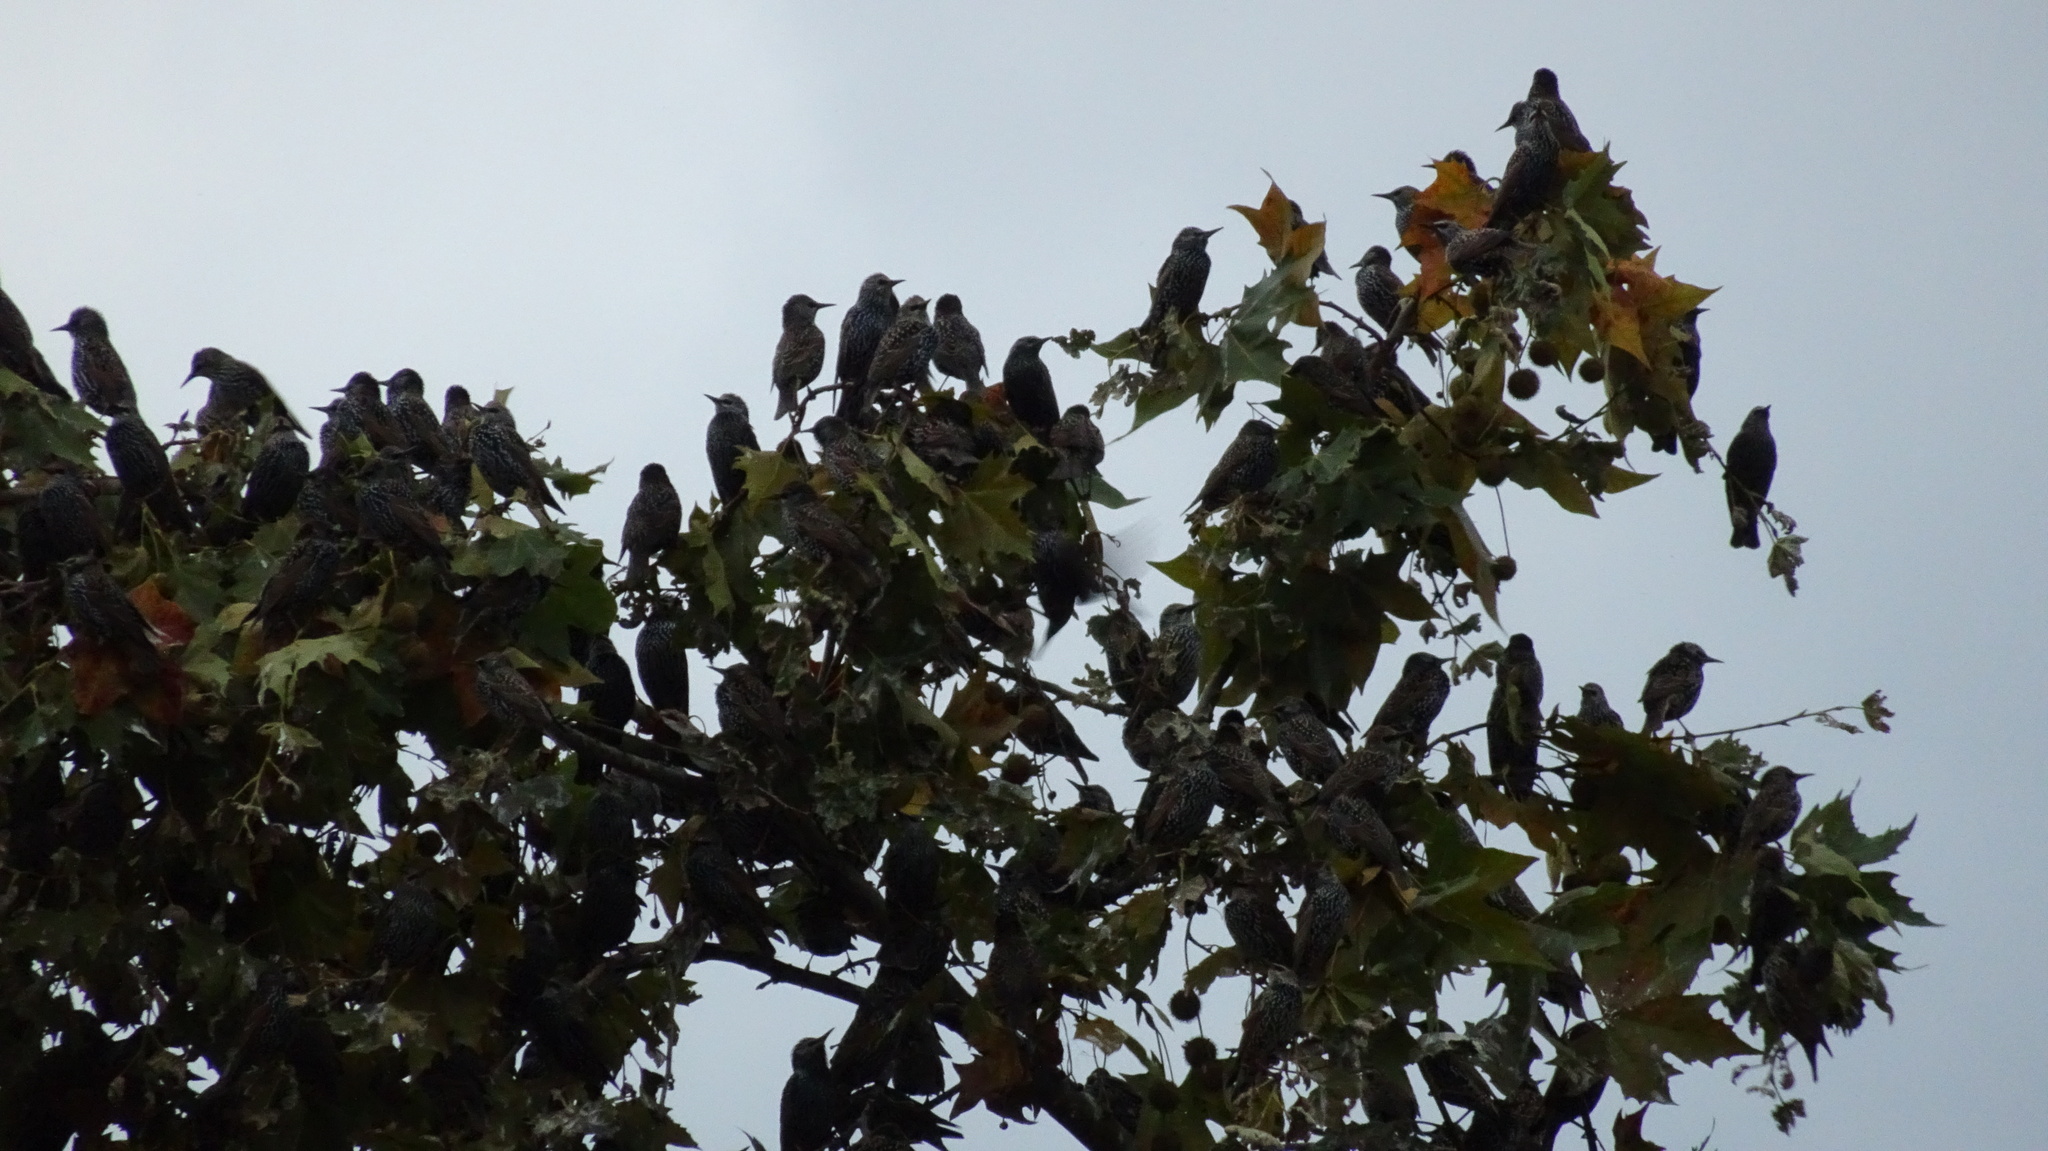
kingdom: Animalia
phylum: Chordata
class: Aves
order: Passeriformes
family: Sturnidae
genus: Sturnus
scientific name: Sturnus vulgaris
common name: Common starling
